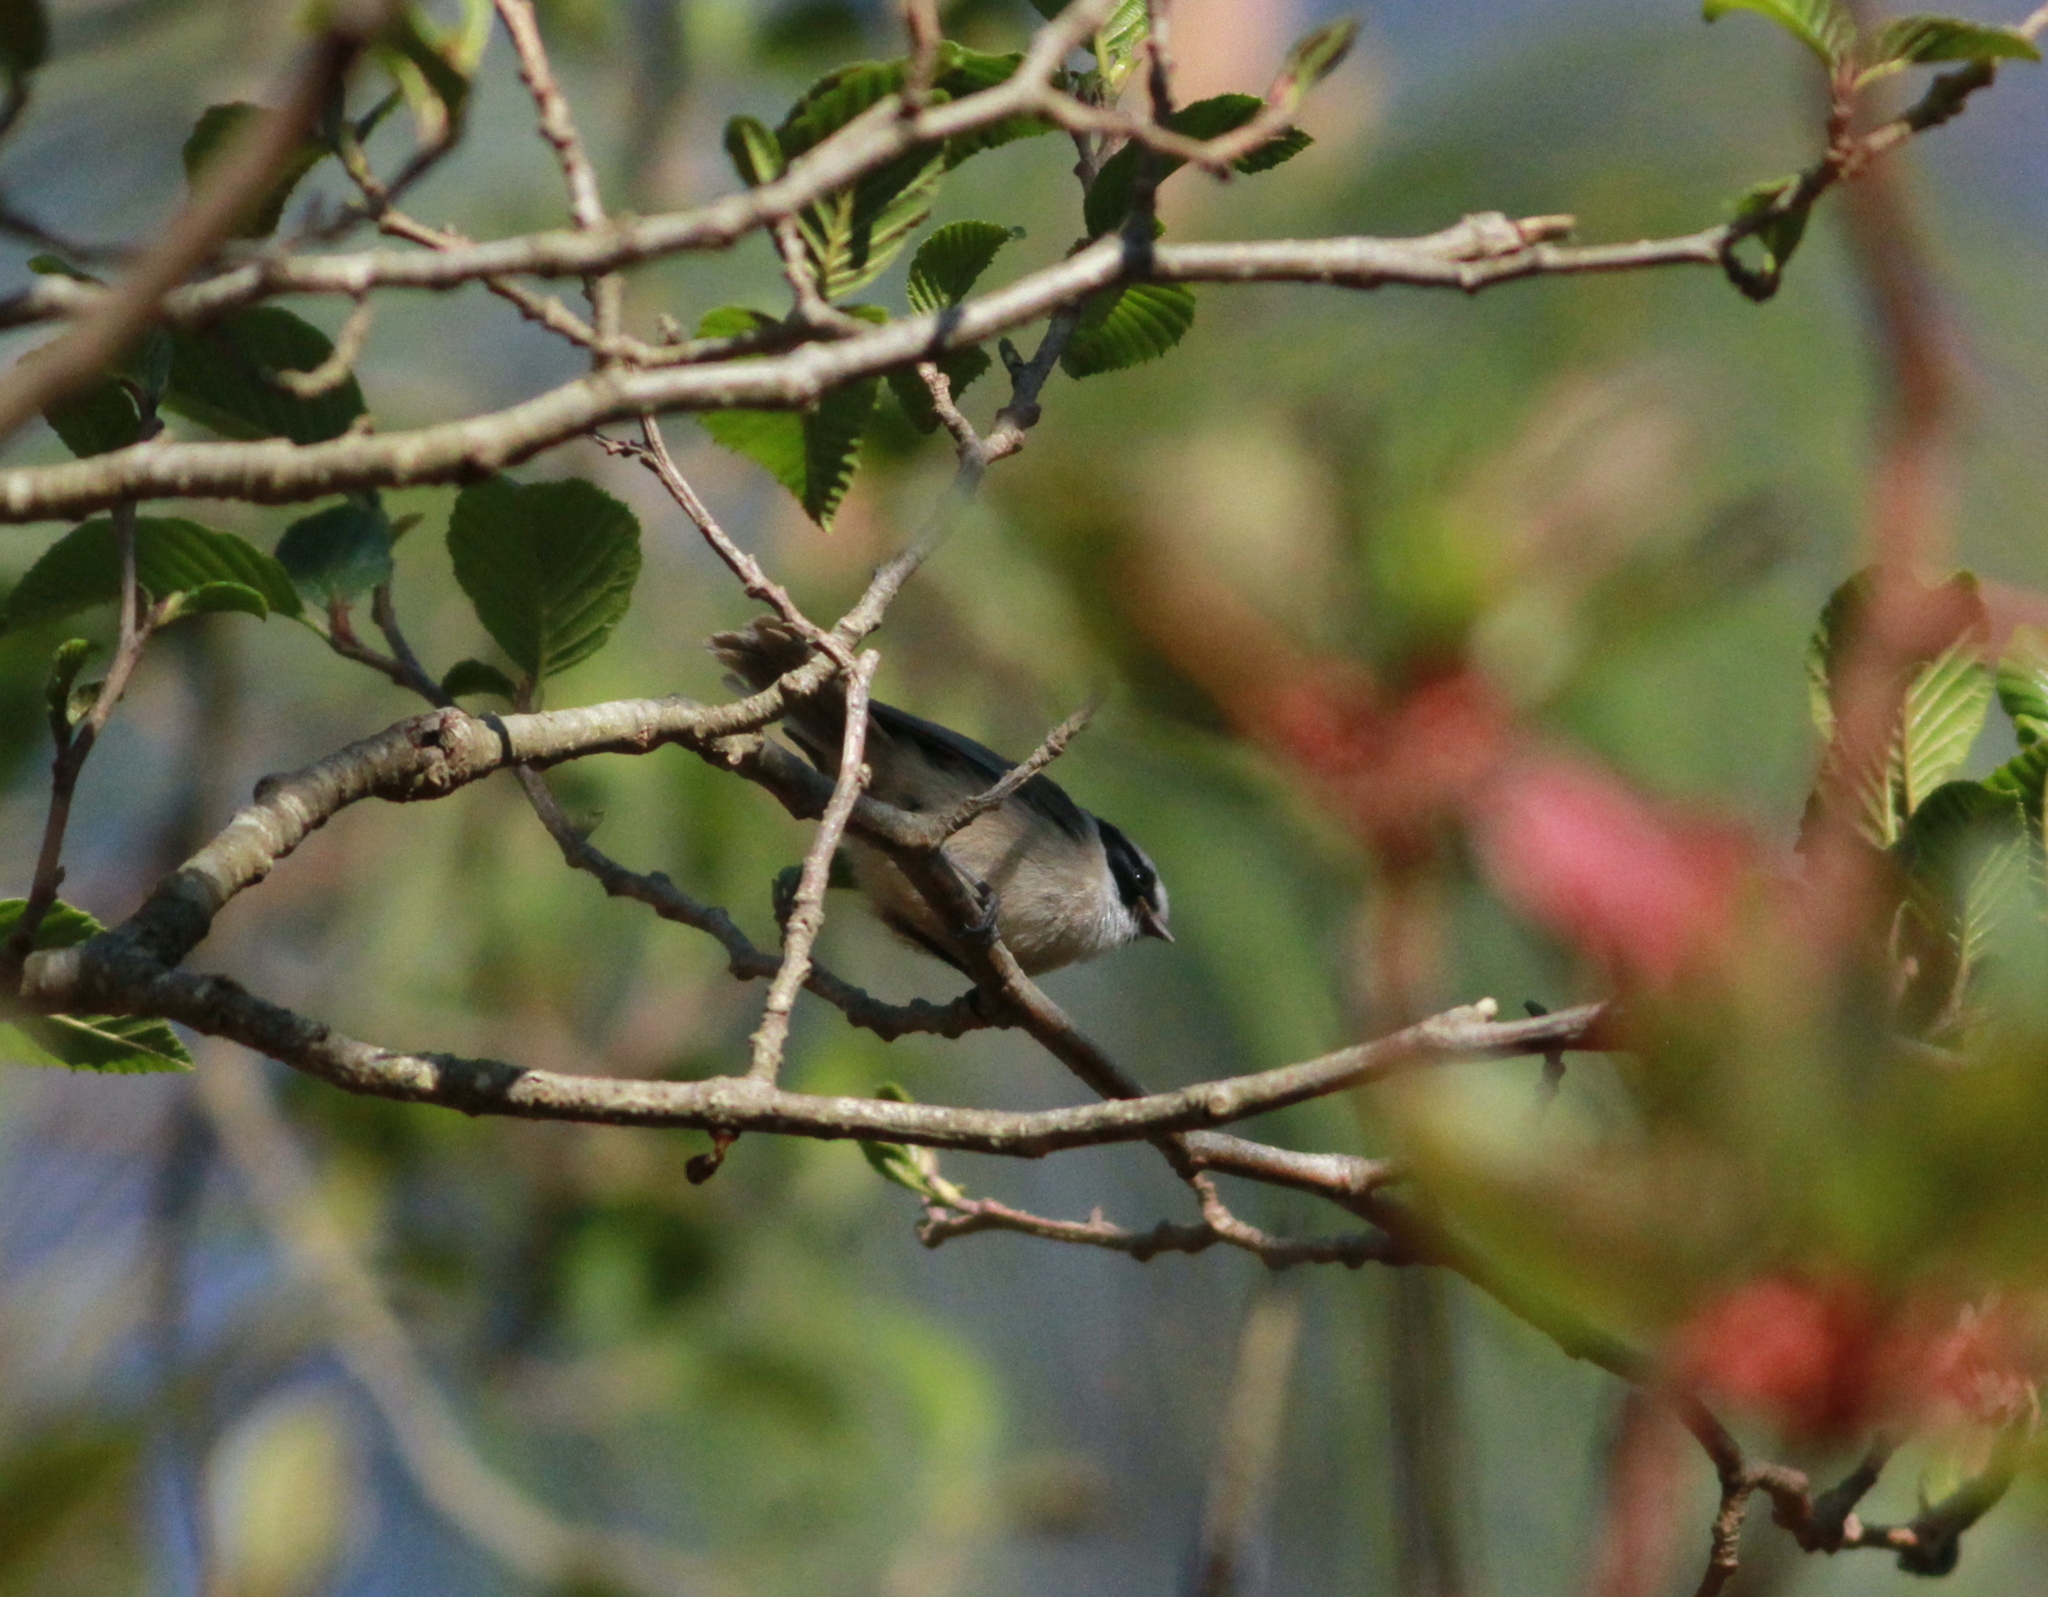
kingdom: Animalia
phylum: Chordata
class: Aves
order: Passeriformes
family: Aegithalidae
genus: Psaltriparus
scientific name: Psaltriparus minimus
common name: American bushtit
